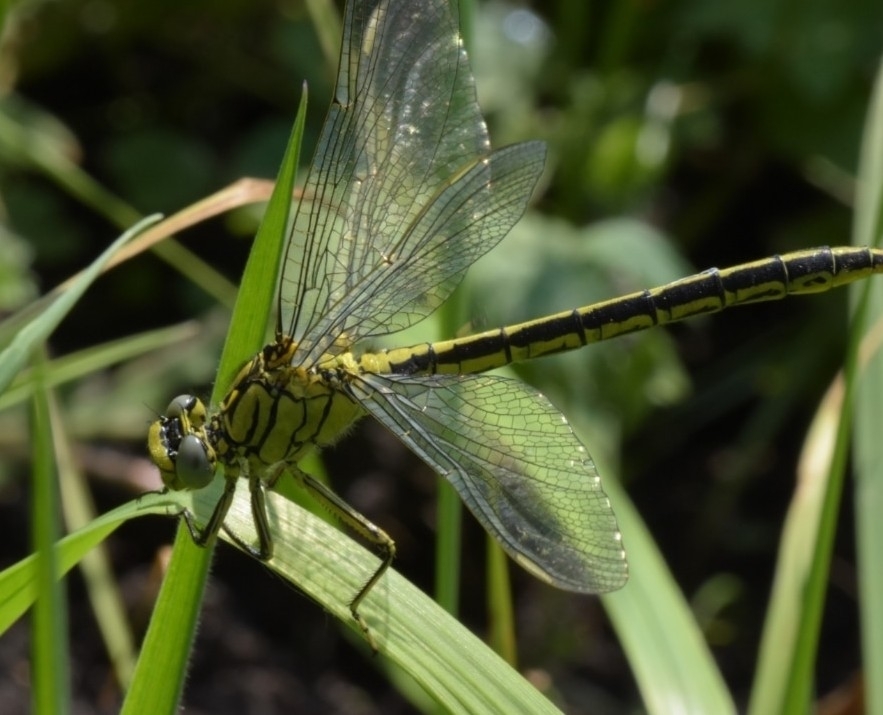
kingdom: Animalia
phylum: Arthropoda
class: Insecta
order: Odonata
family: Gomphidae
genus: Gomphus
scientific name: Gomphus pulchellus
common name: Western clubtail
